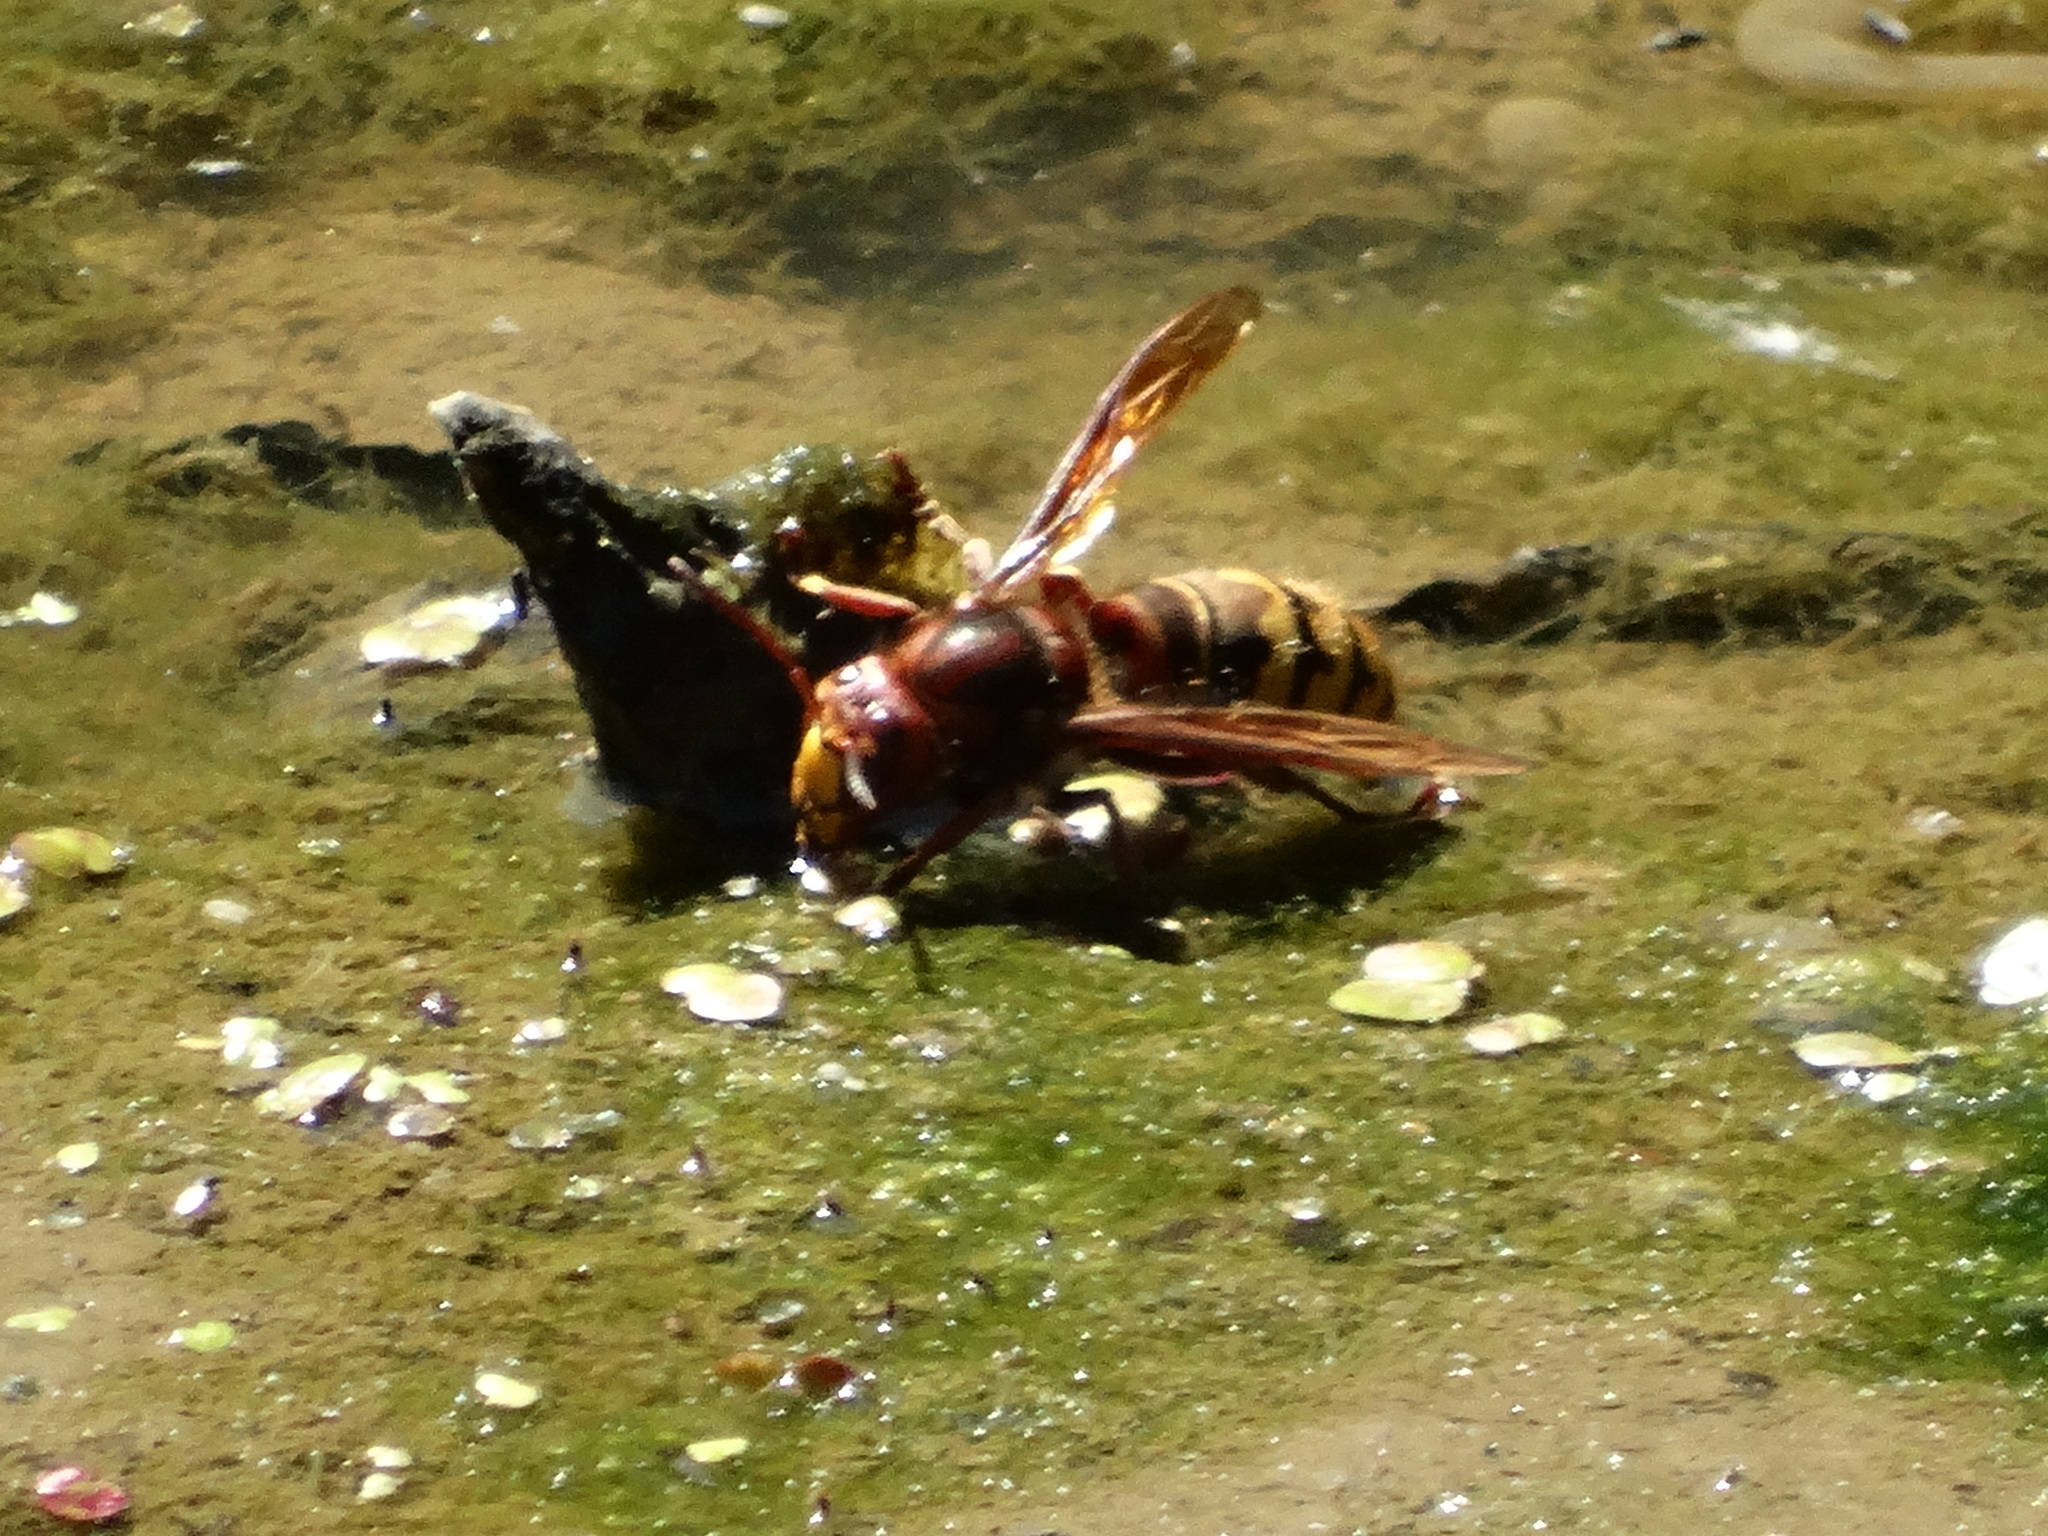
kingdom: Animalia
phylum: Arthropoda
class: Insecta
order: Hymenoptera
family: Vespidae
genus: Vespa
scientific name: Vespa crabro
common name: Hornet
